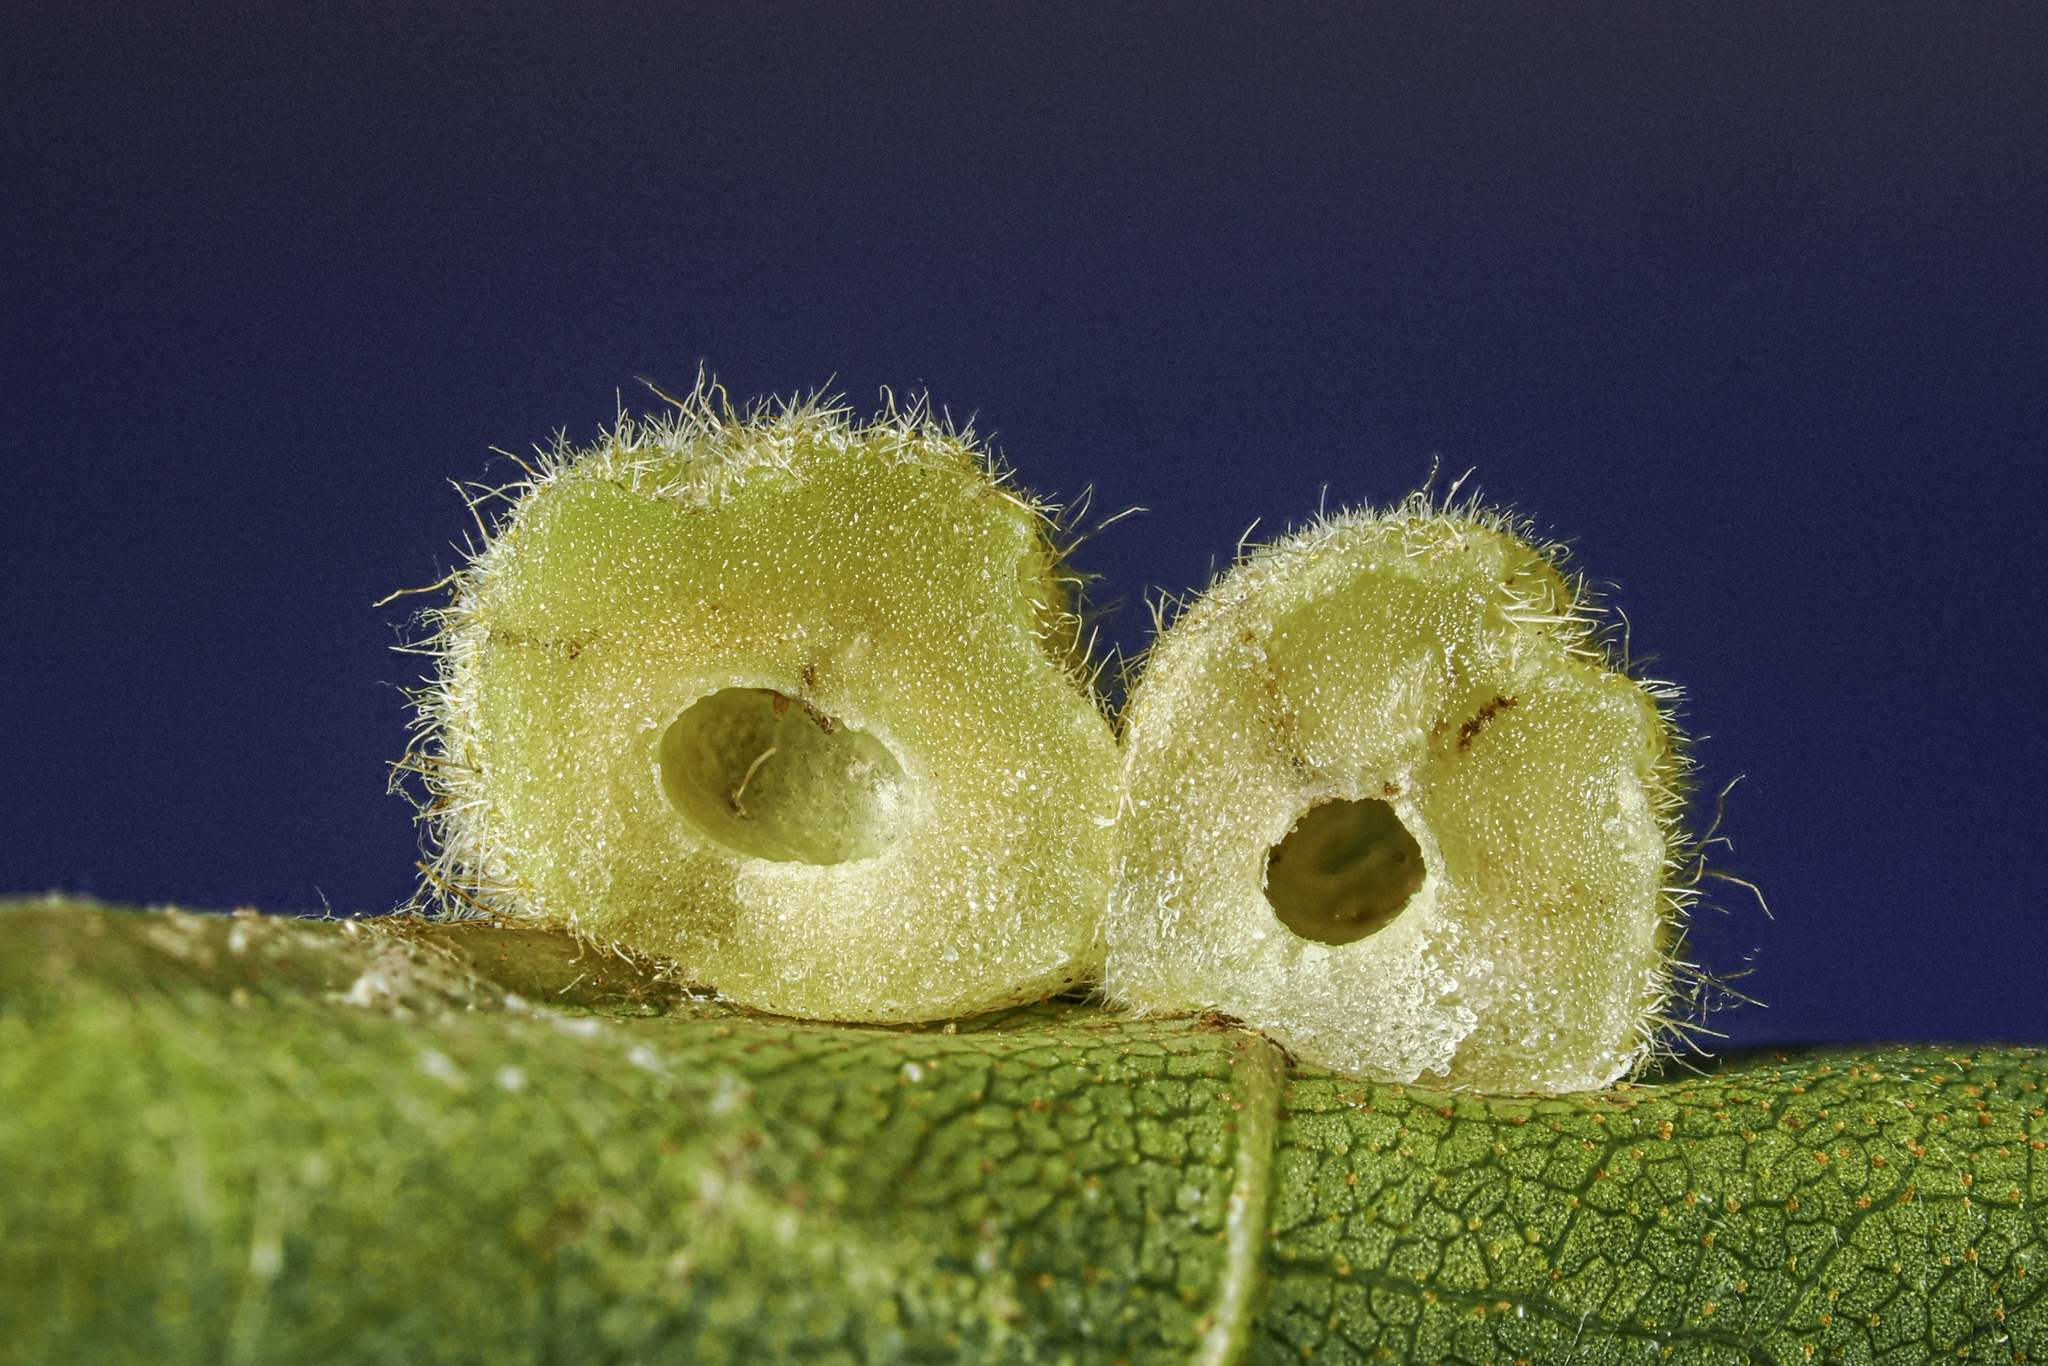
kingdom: Animalia
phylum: Arthropoda
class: Insecta
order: Diptera
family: Cecidomyiidae
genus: Caryomyia
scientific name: Caryomyia persicoides
